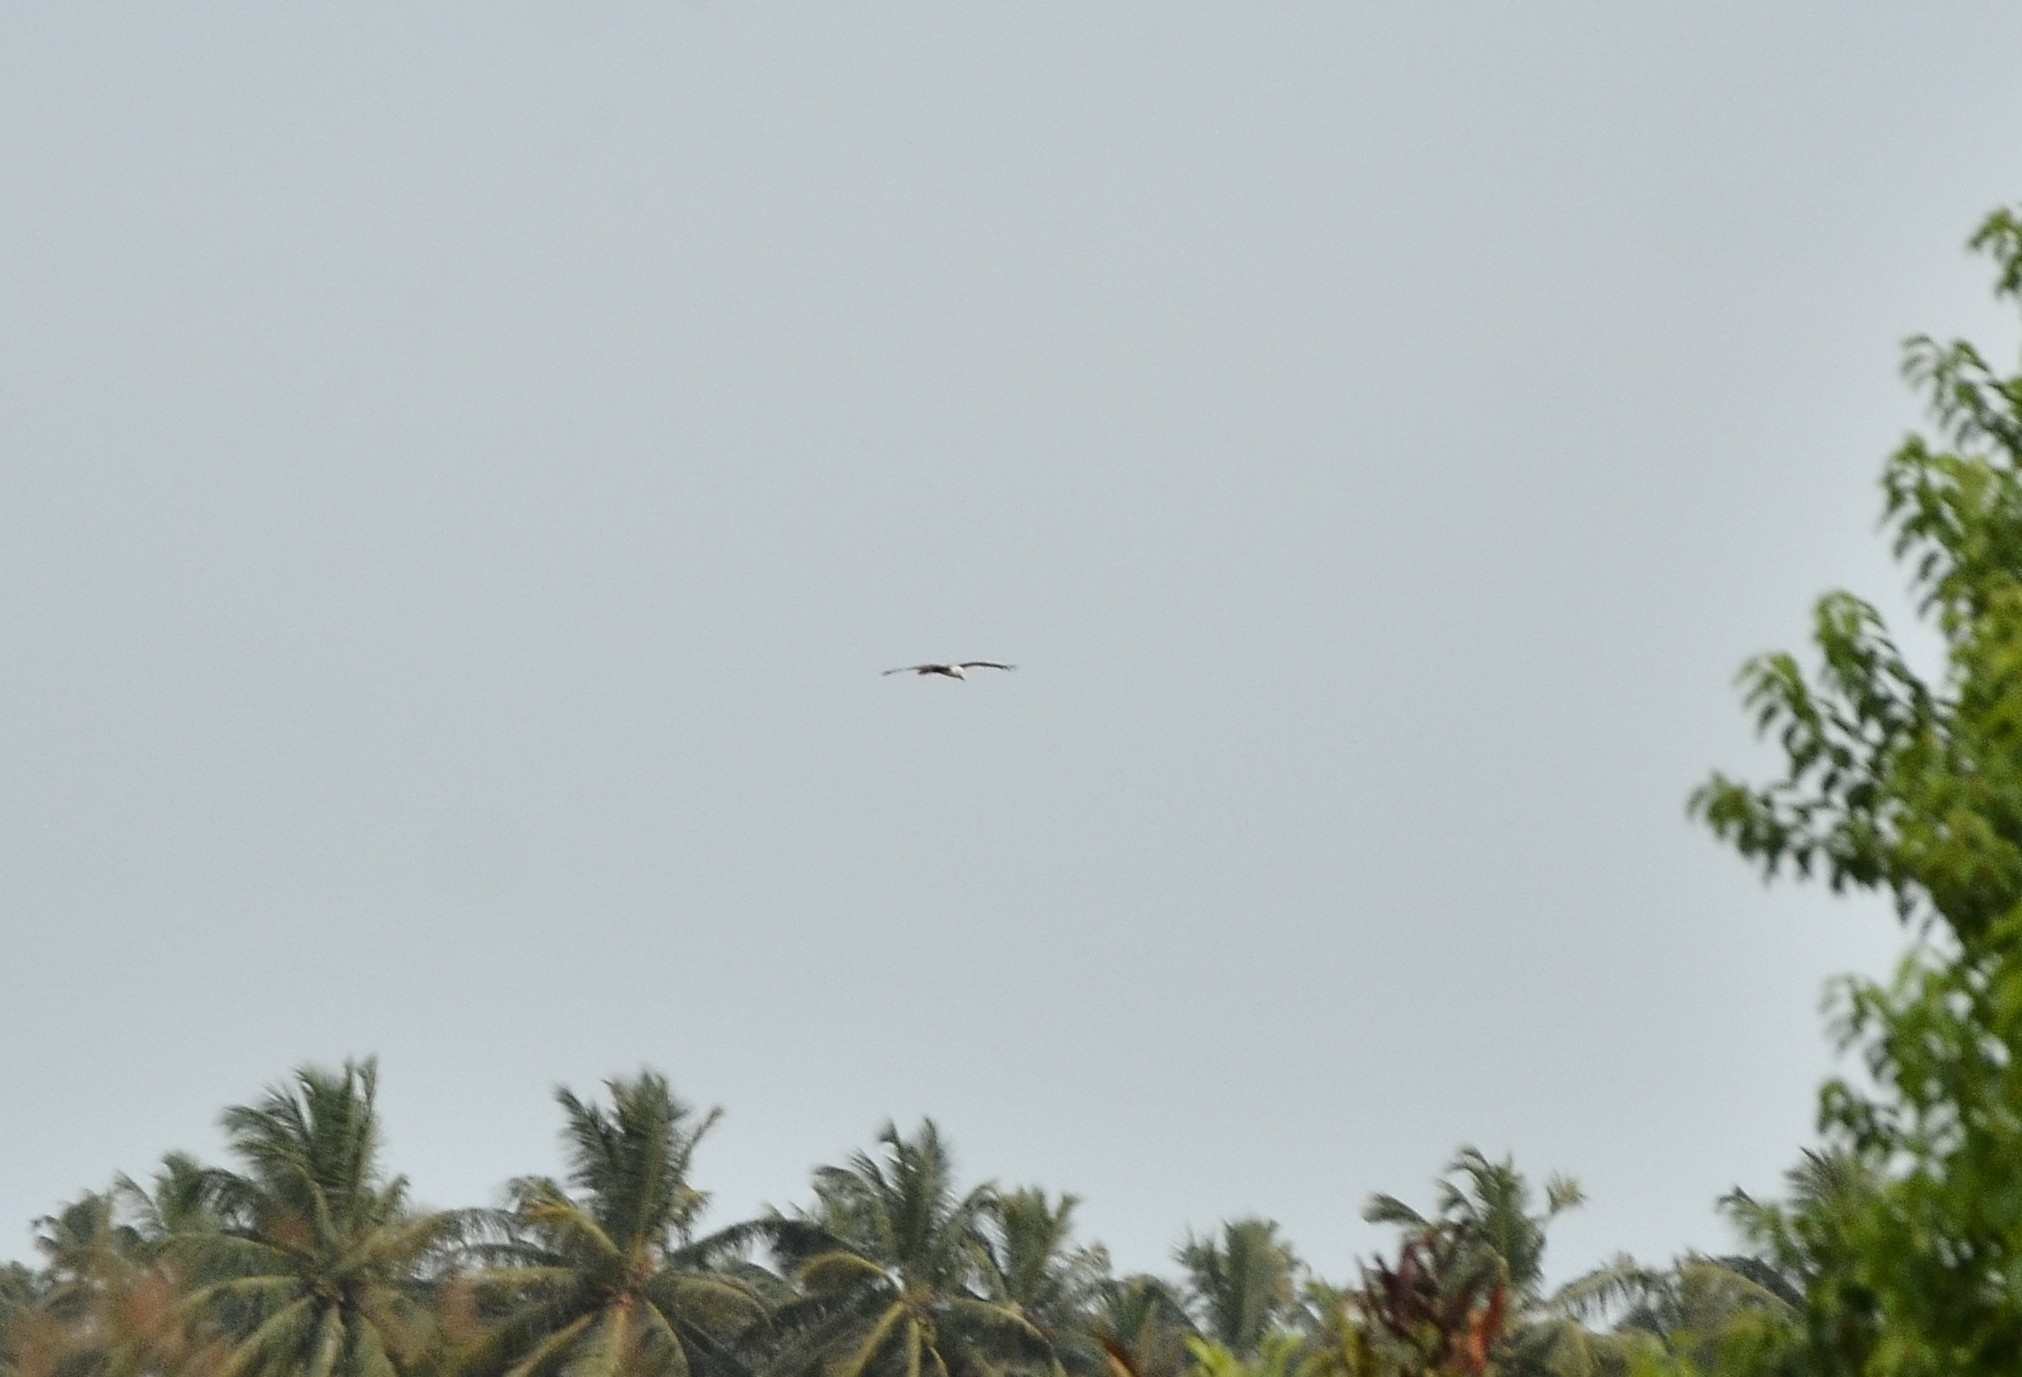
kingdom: Animalia
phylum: Chordata
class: Aves
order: Accipitriformes
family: Accipitridae
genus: Haliastur
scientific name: Haliastur indus
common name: Brahminy kite
